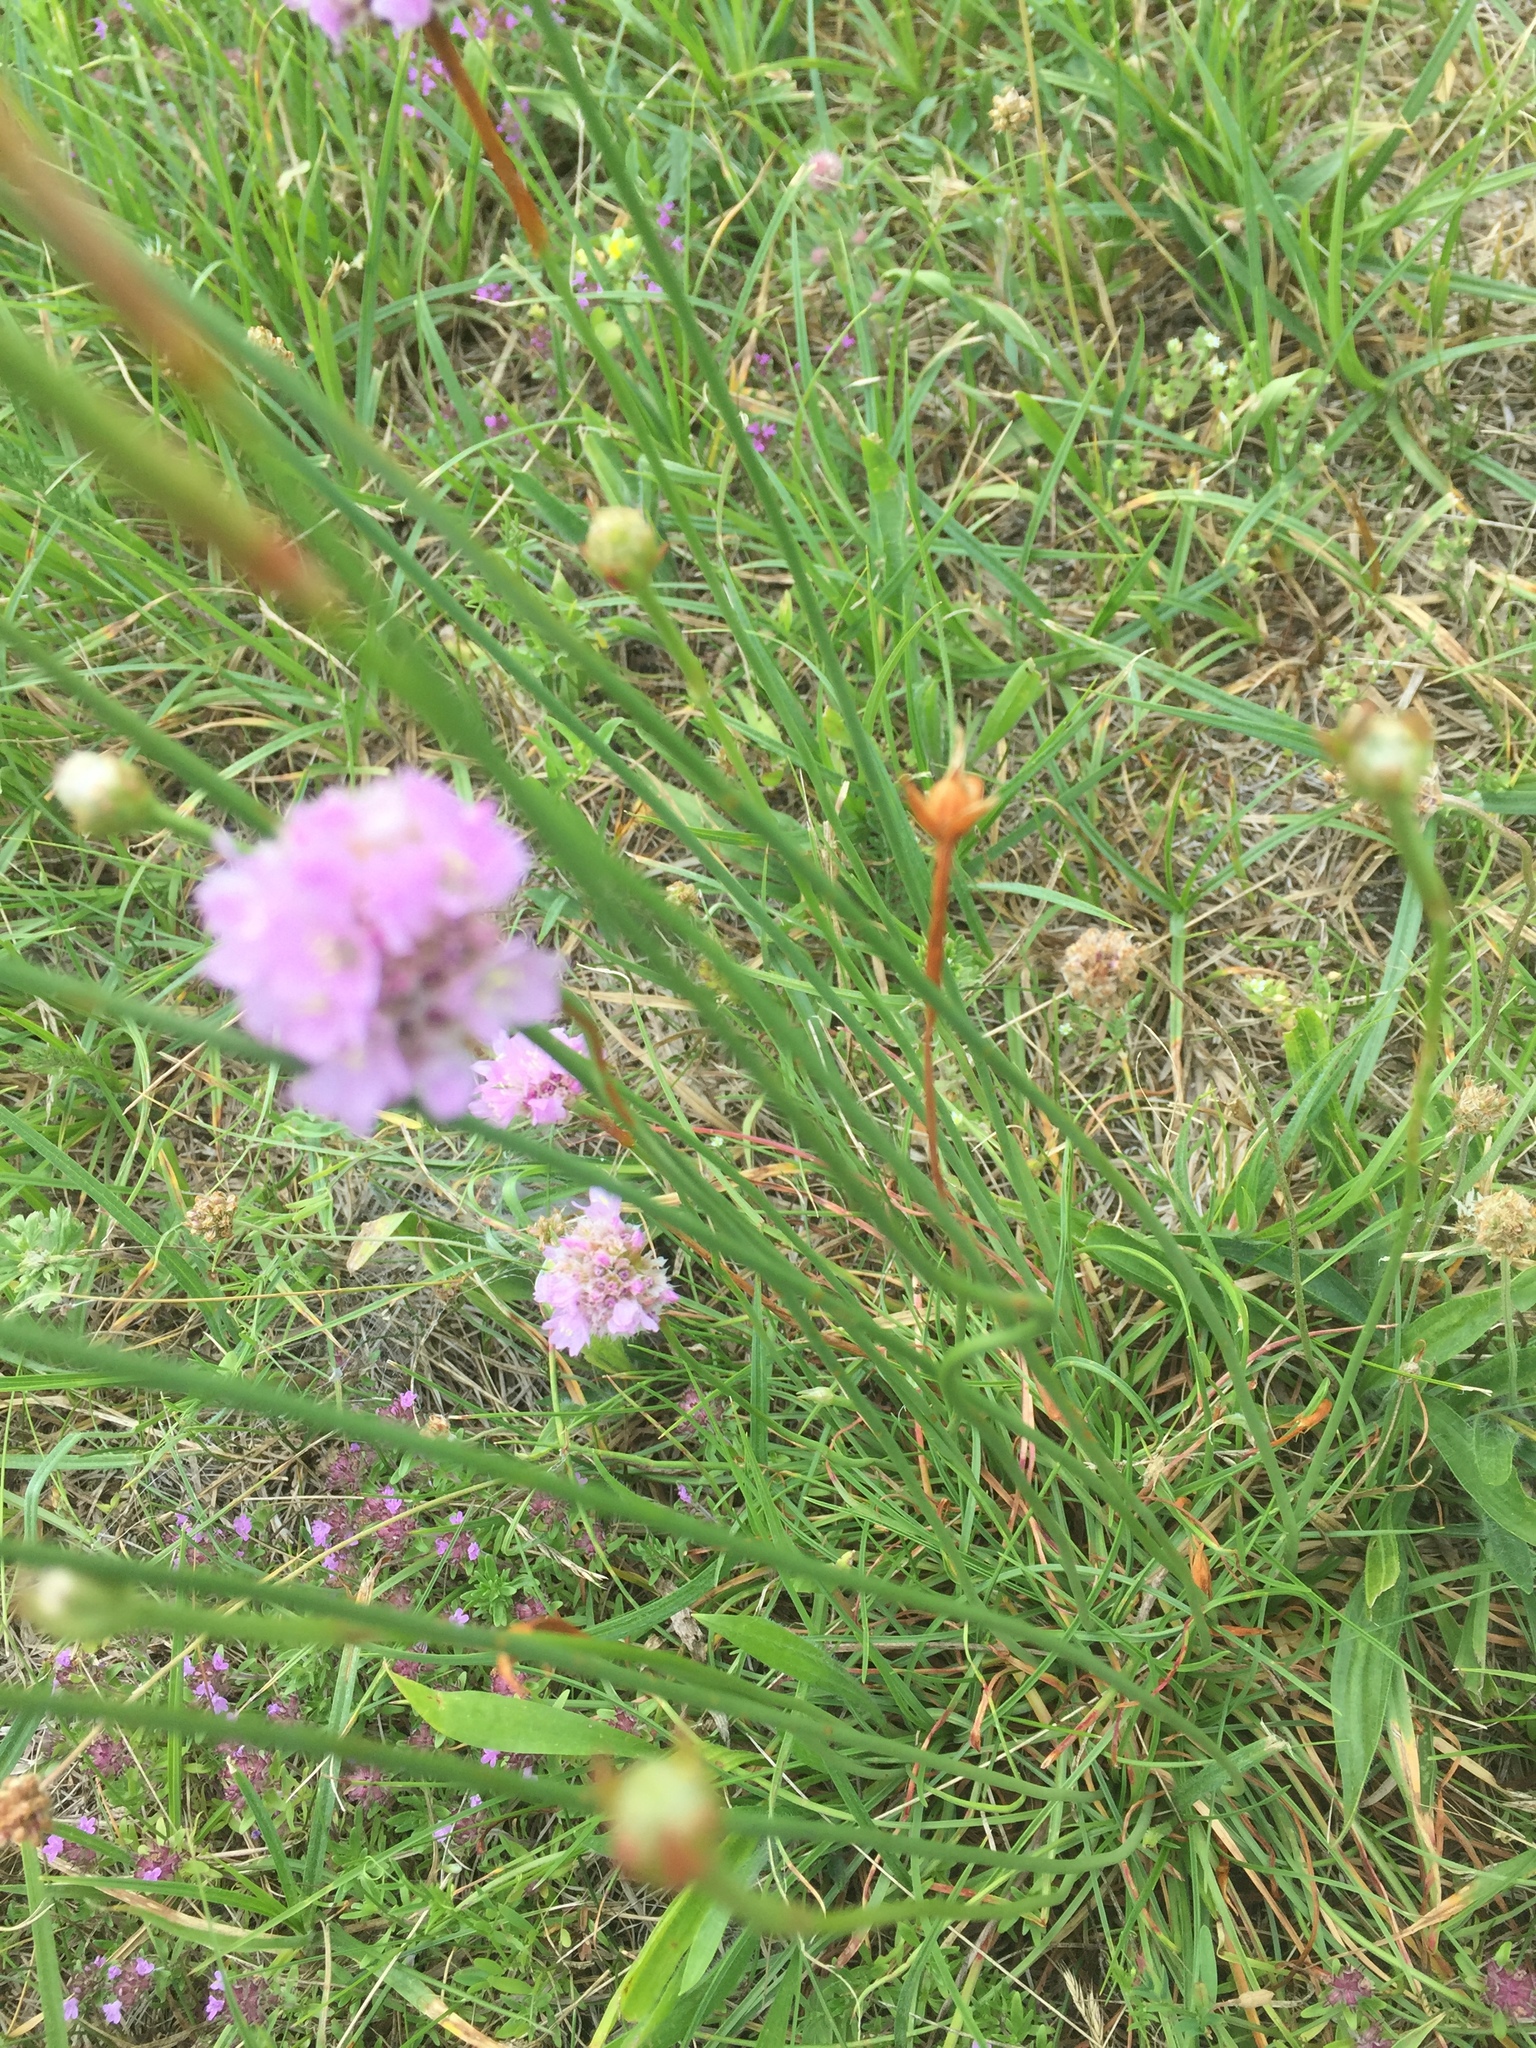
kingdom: Plantae
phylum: Tracheophyta
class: Magnoliopsida
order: Caryophyllales
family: Plumbaginaceae
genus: Armeria
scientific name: Armeria maritima
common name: Thrift
